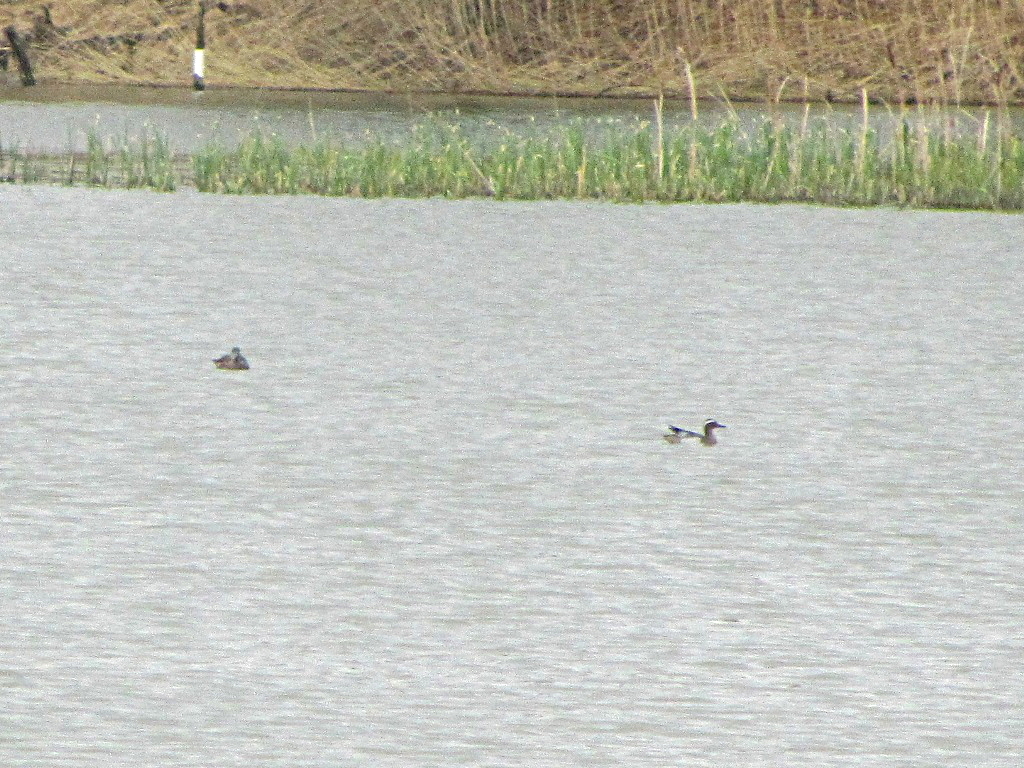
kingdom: Animalia
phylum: Chordata
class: Aves
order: Anseriformes
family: Anatidae
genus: Spatula
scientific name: Spatula querquedula
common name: Garganey
